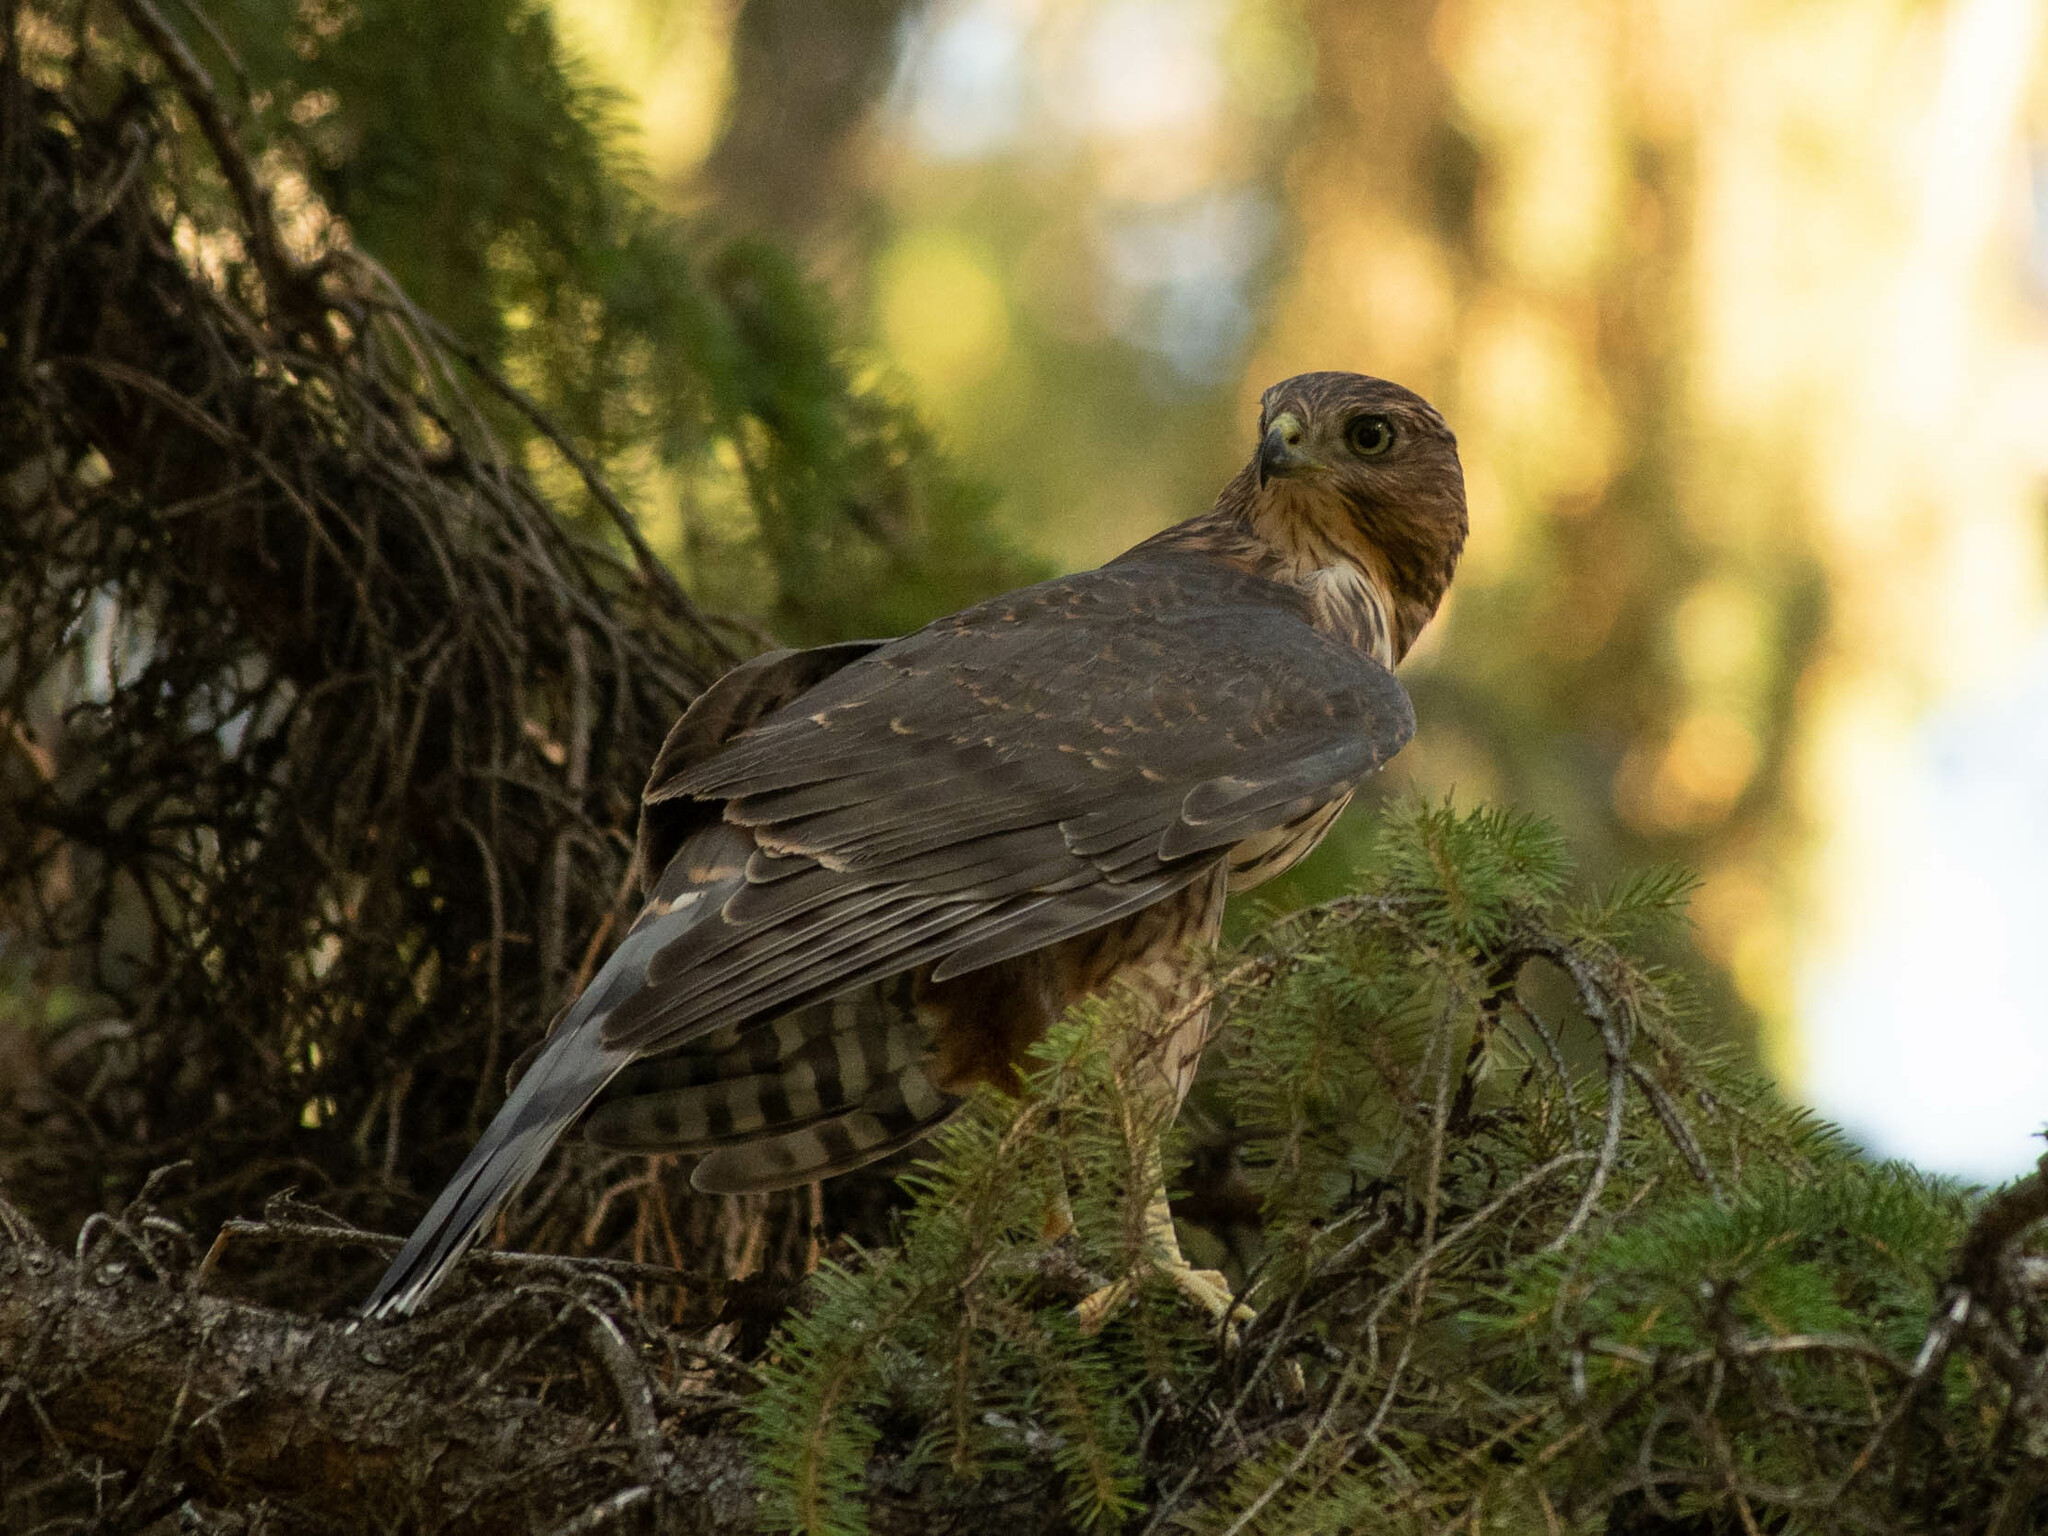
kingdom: Animalia
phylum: Chordata
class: Aves
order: Accipitriformes
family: Accipitridae
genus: Accipiter
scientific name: Accipiter cooperii
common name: Cooper's hawk
